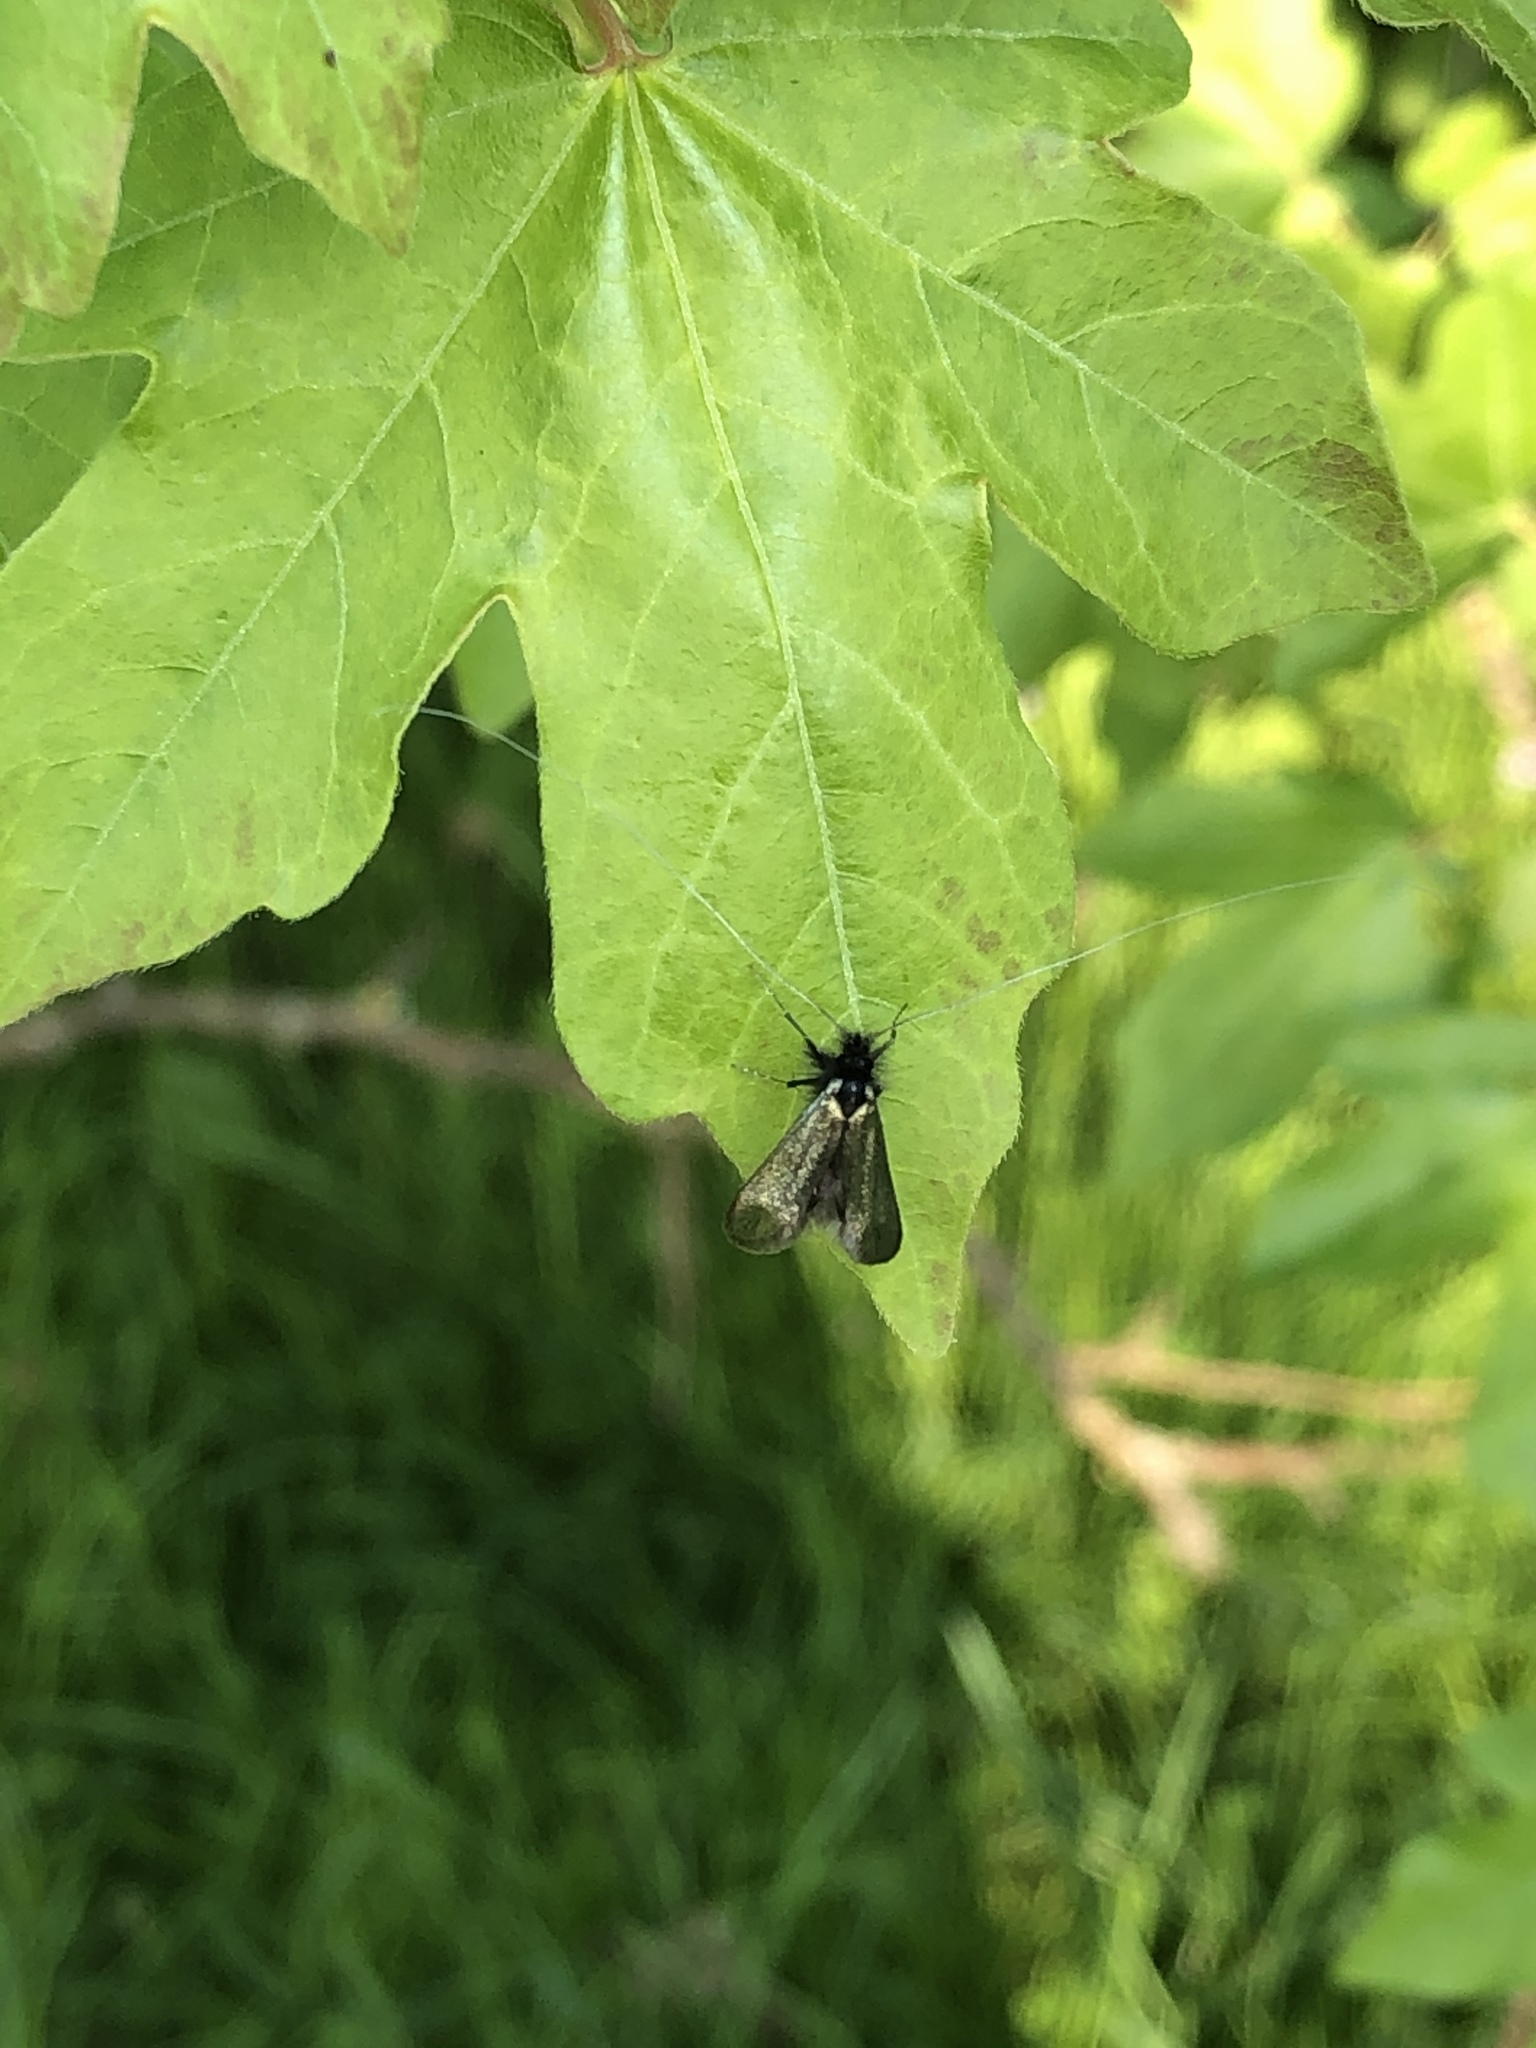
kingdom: Animalia
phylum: Arthropoda
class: Insecta
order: Lepidoptera
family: Adelidae
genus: Adela
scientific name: Adela viridella
